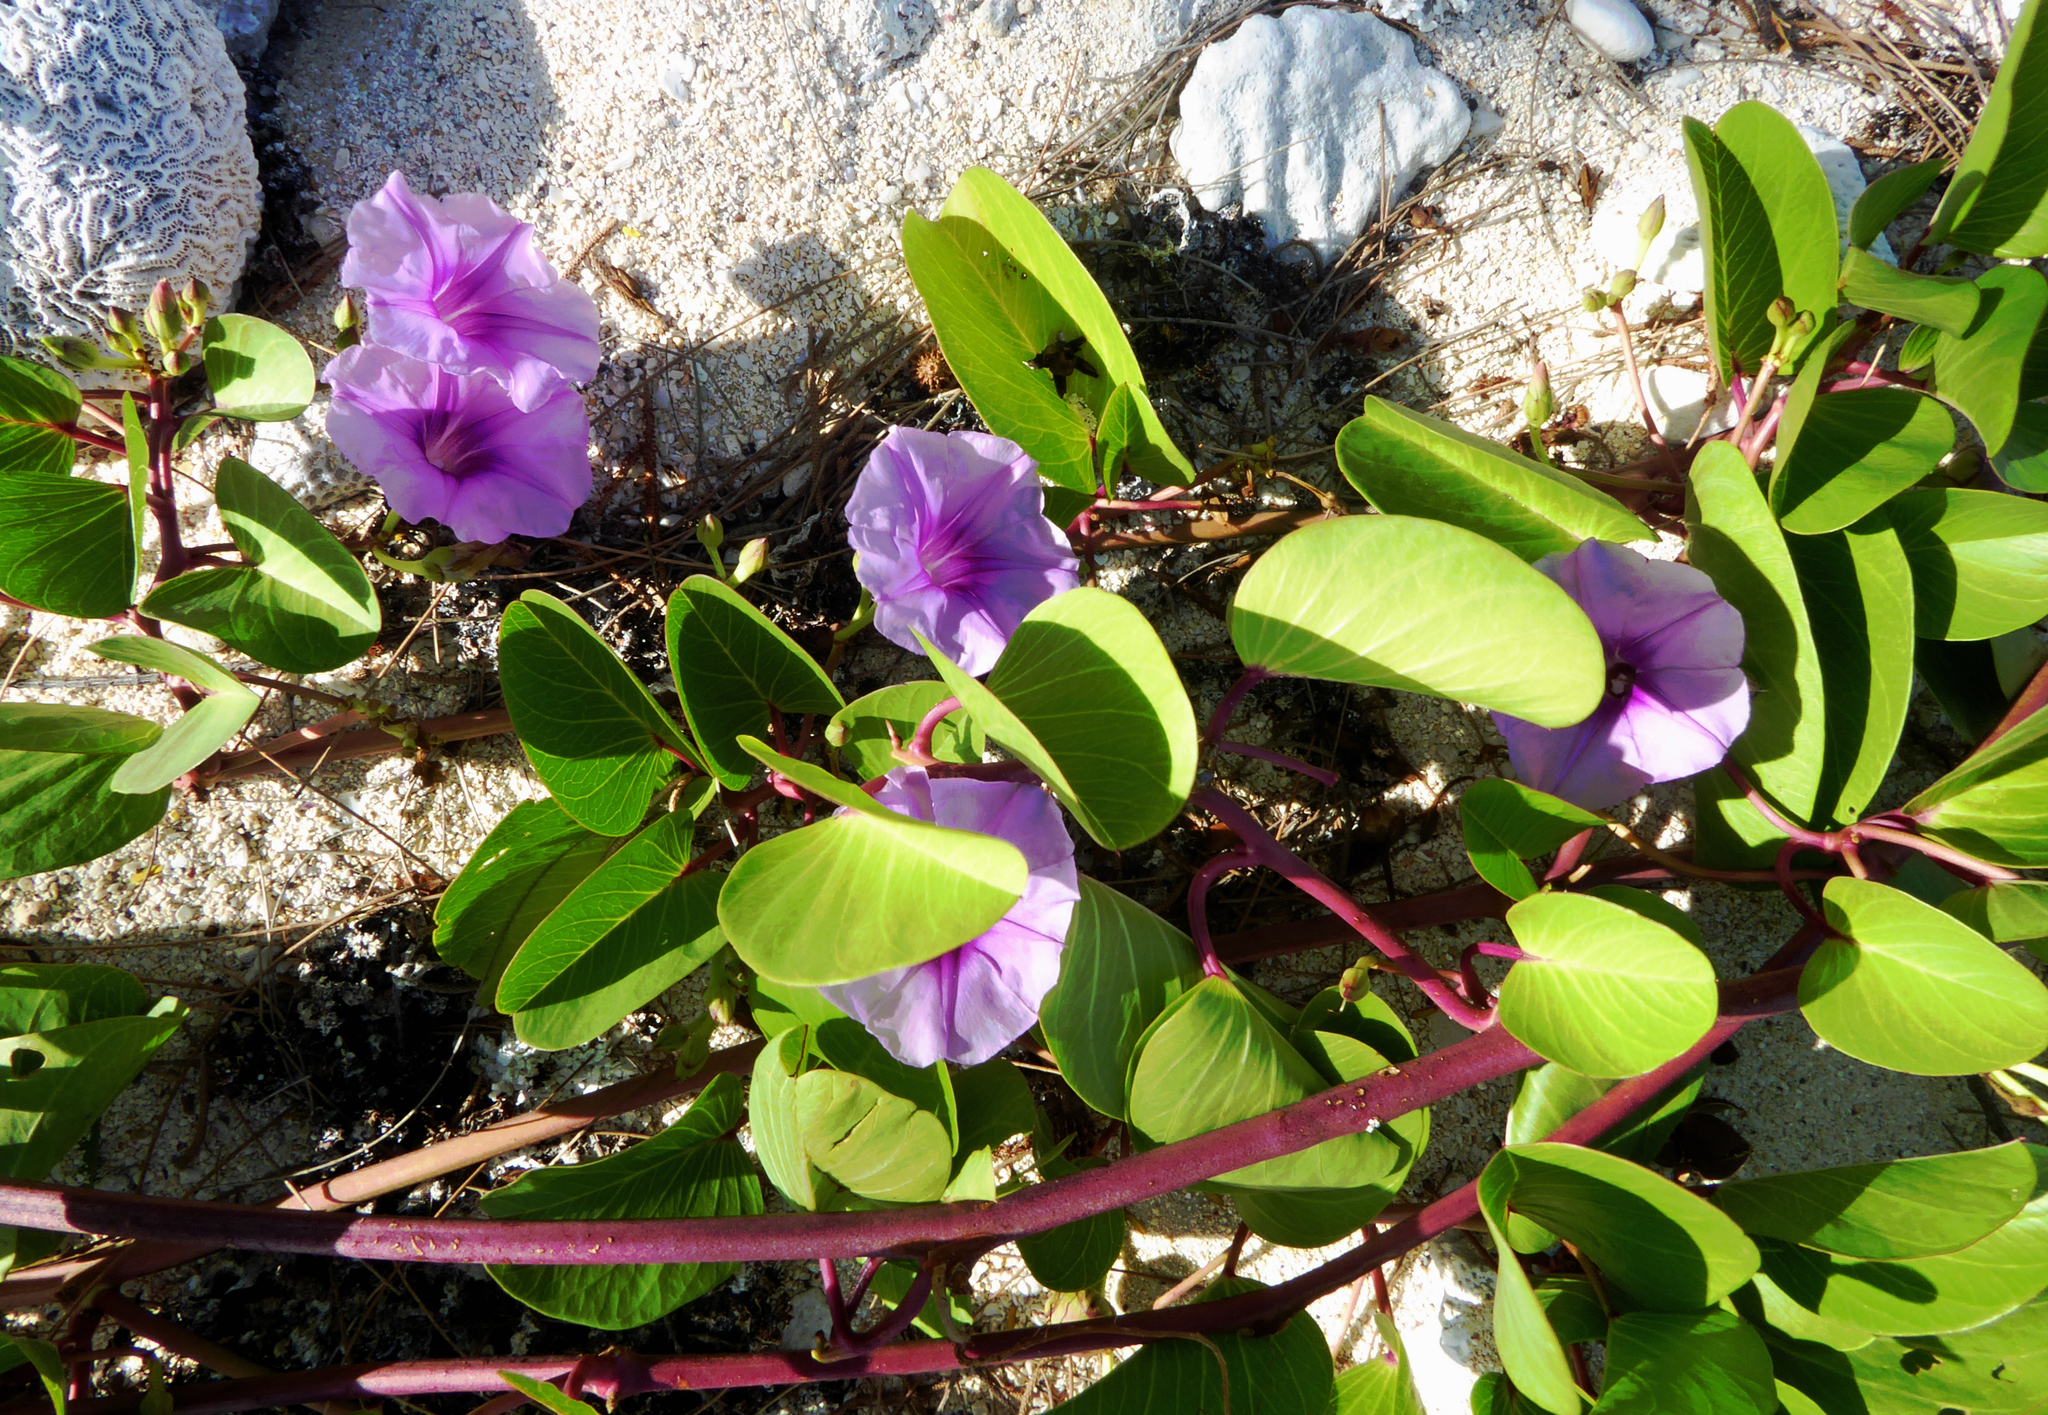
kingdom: Plantae
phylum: Tracheophyta
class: Magnoliopsida
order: Solanales
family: Convolvulaceae
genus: Ipomoea
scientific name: Ipomoea pes-caprae
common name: Beach morning glory
